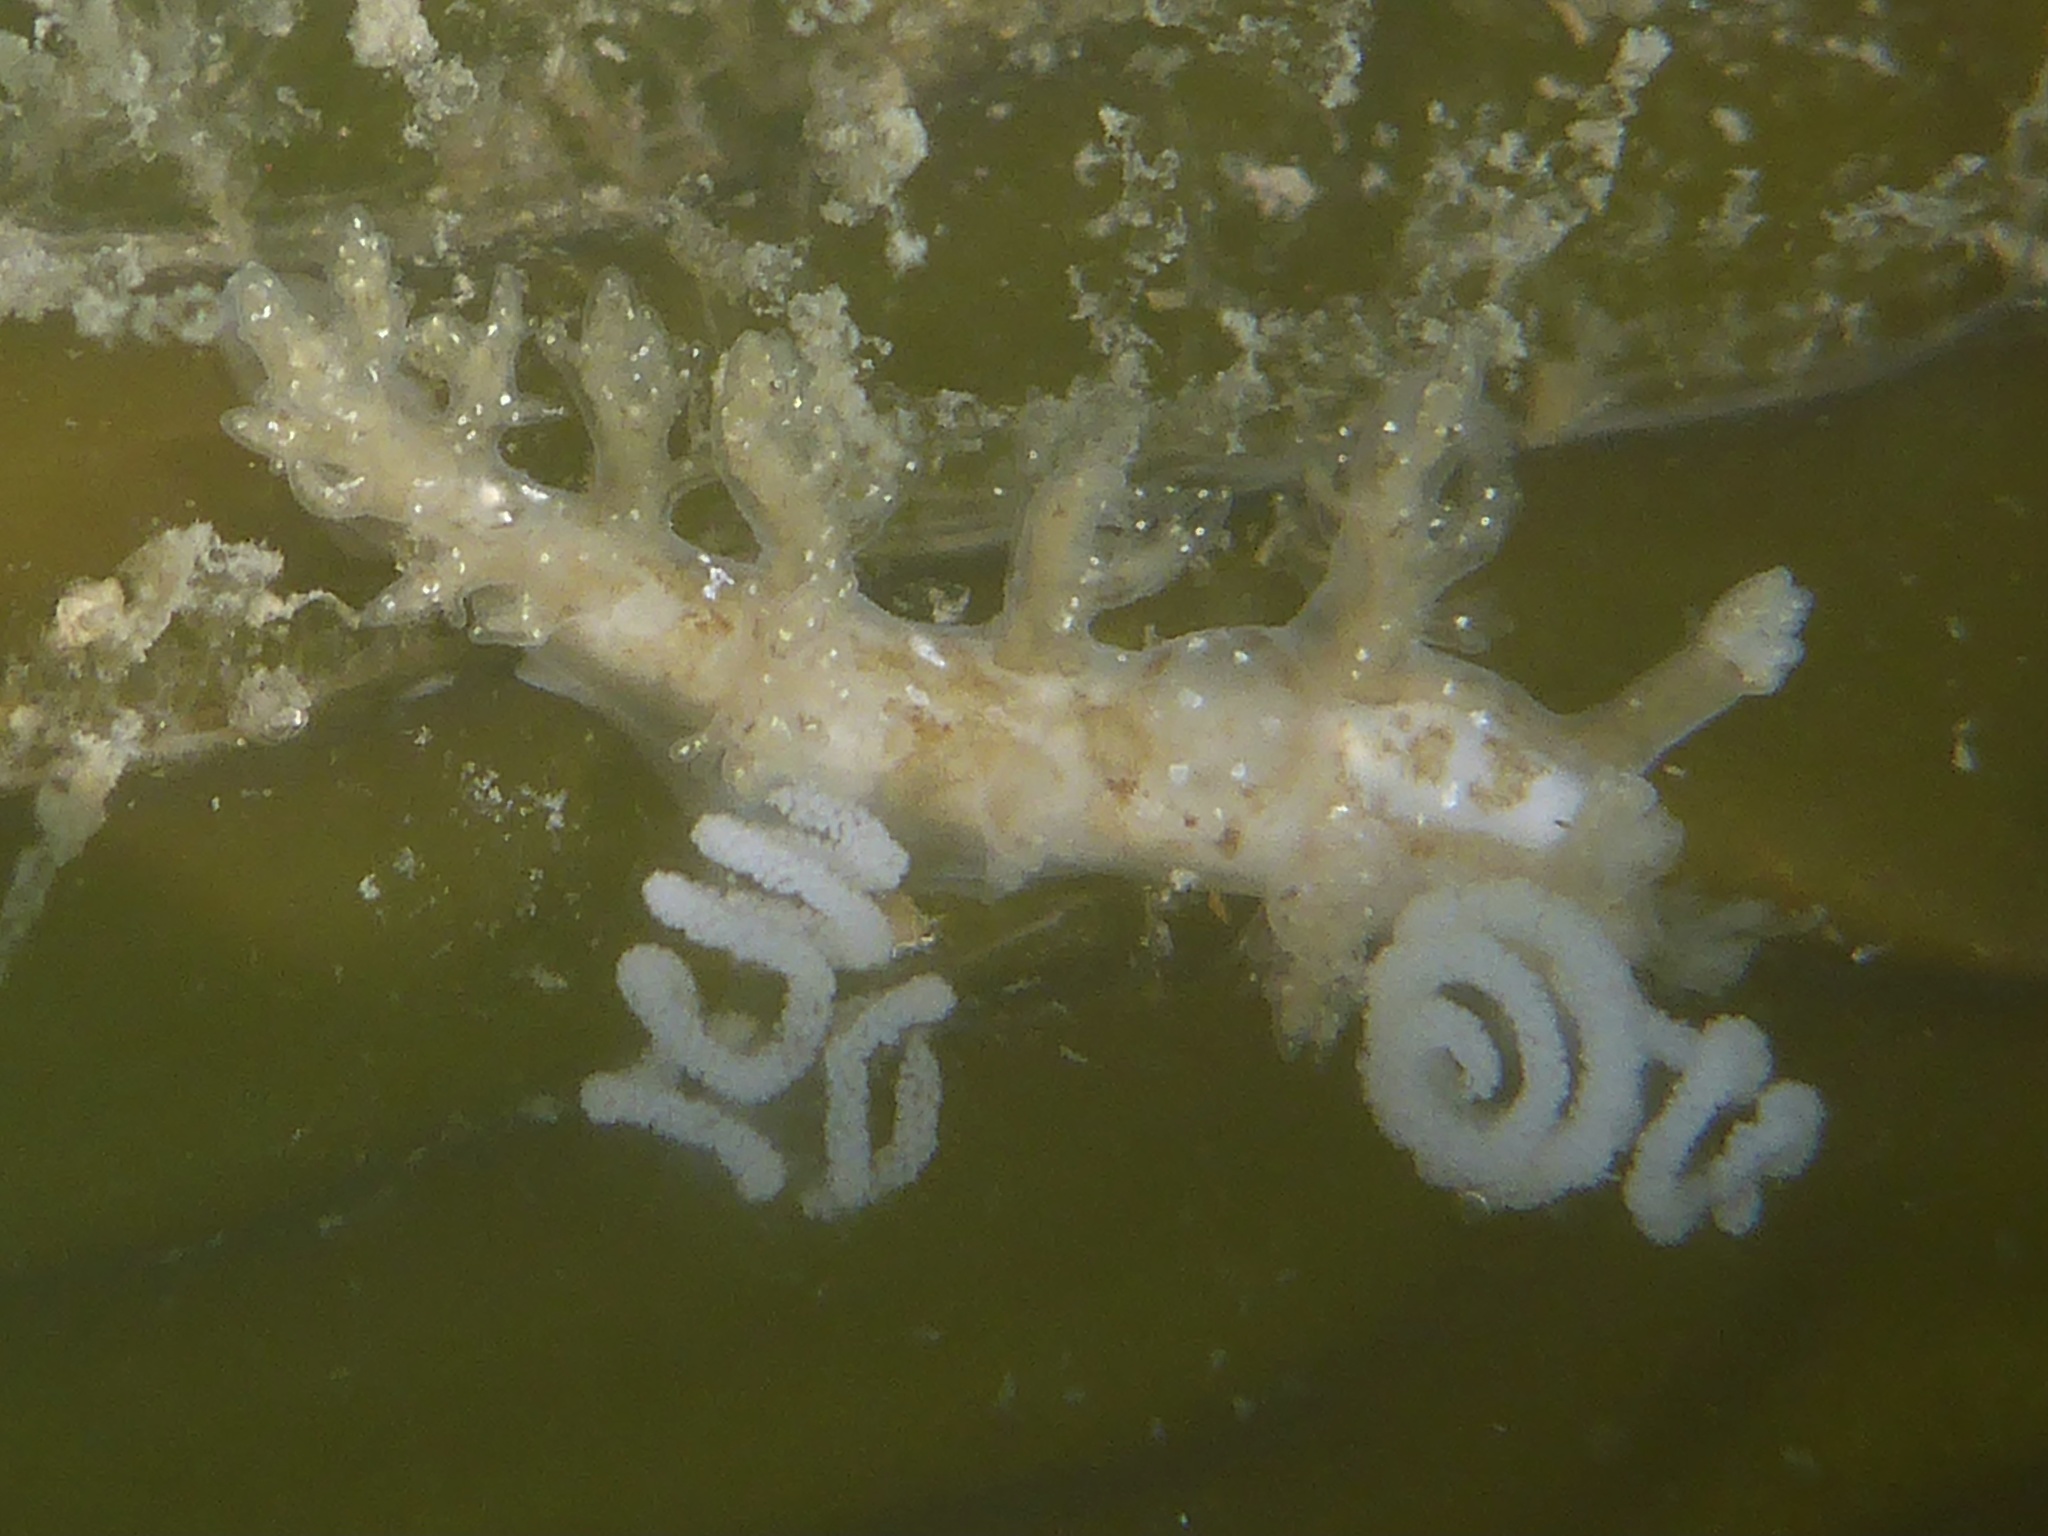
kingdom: Animalia
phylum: Mollusca
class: Gastropoda
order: Nudibranchia
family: Dendronotidae
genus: Dendronotus
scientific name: Dendronotus venustus
